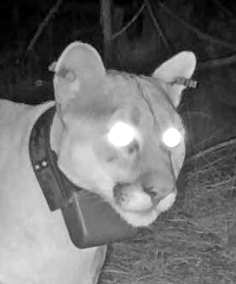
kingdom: Animalia
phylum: Chordata
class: Mammalia
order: Carnivora
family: Felidae
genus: Puma
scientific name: Puma concolor
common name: Puma
